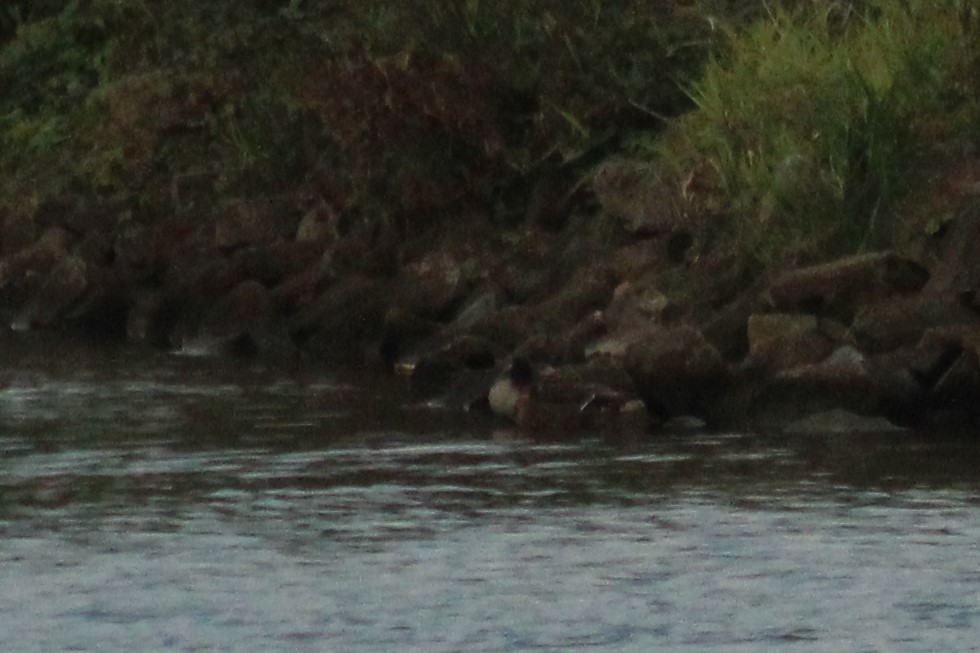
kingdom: Animalia
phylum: Chordata
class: Aves
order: Anseriformes
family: Anatidae
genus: Anas
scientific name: Anas platyrhynchos
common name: Mallard
